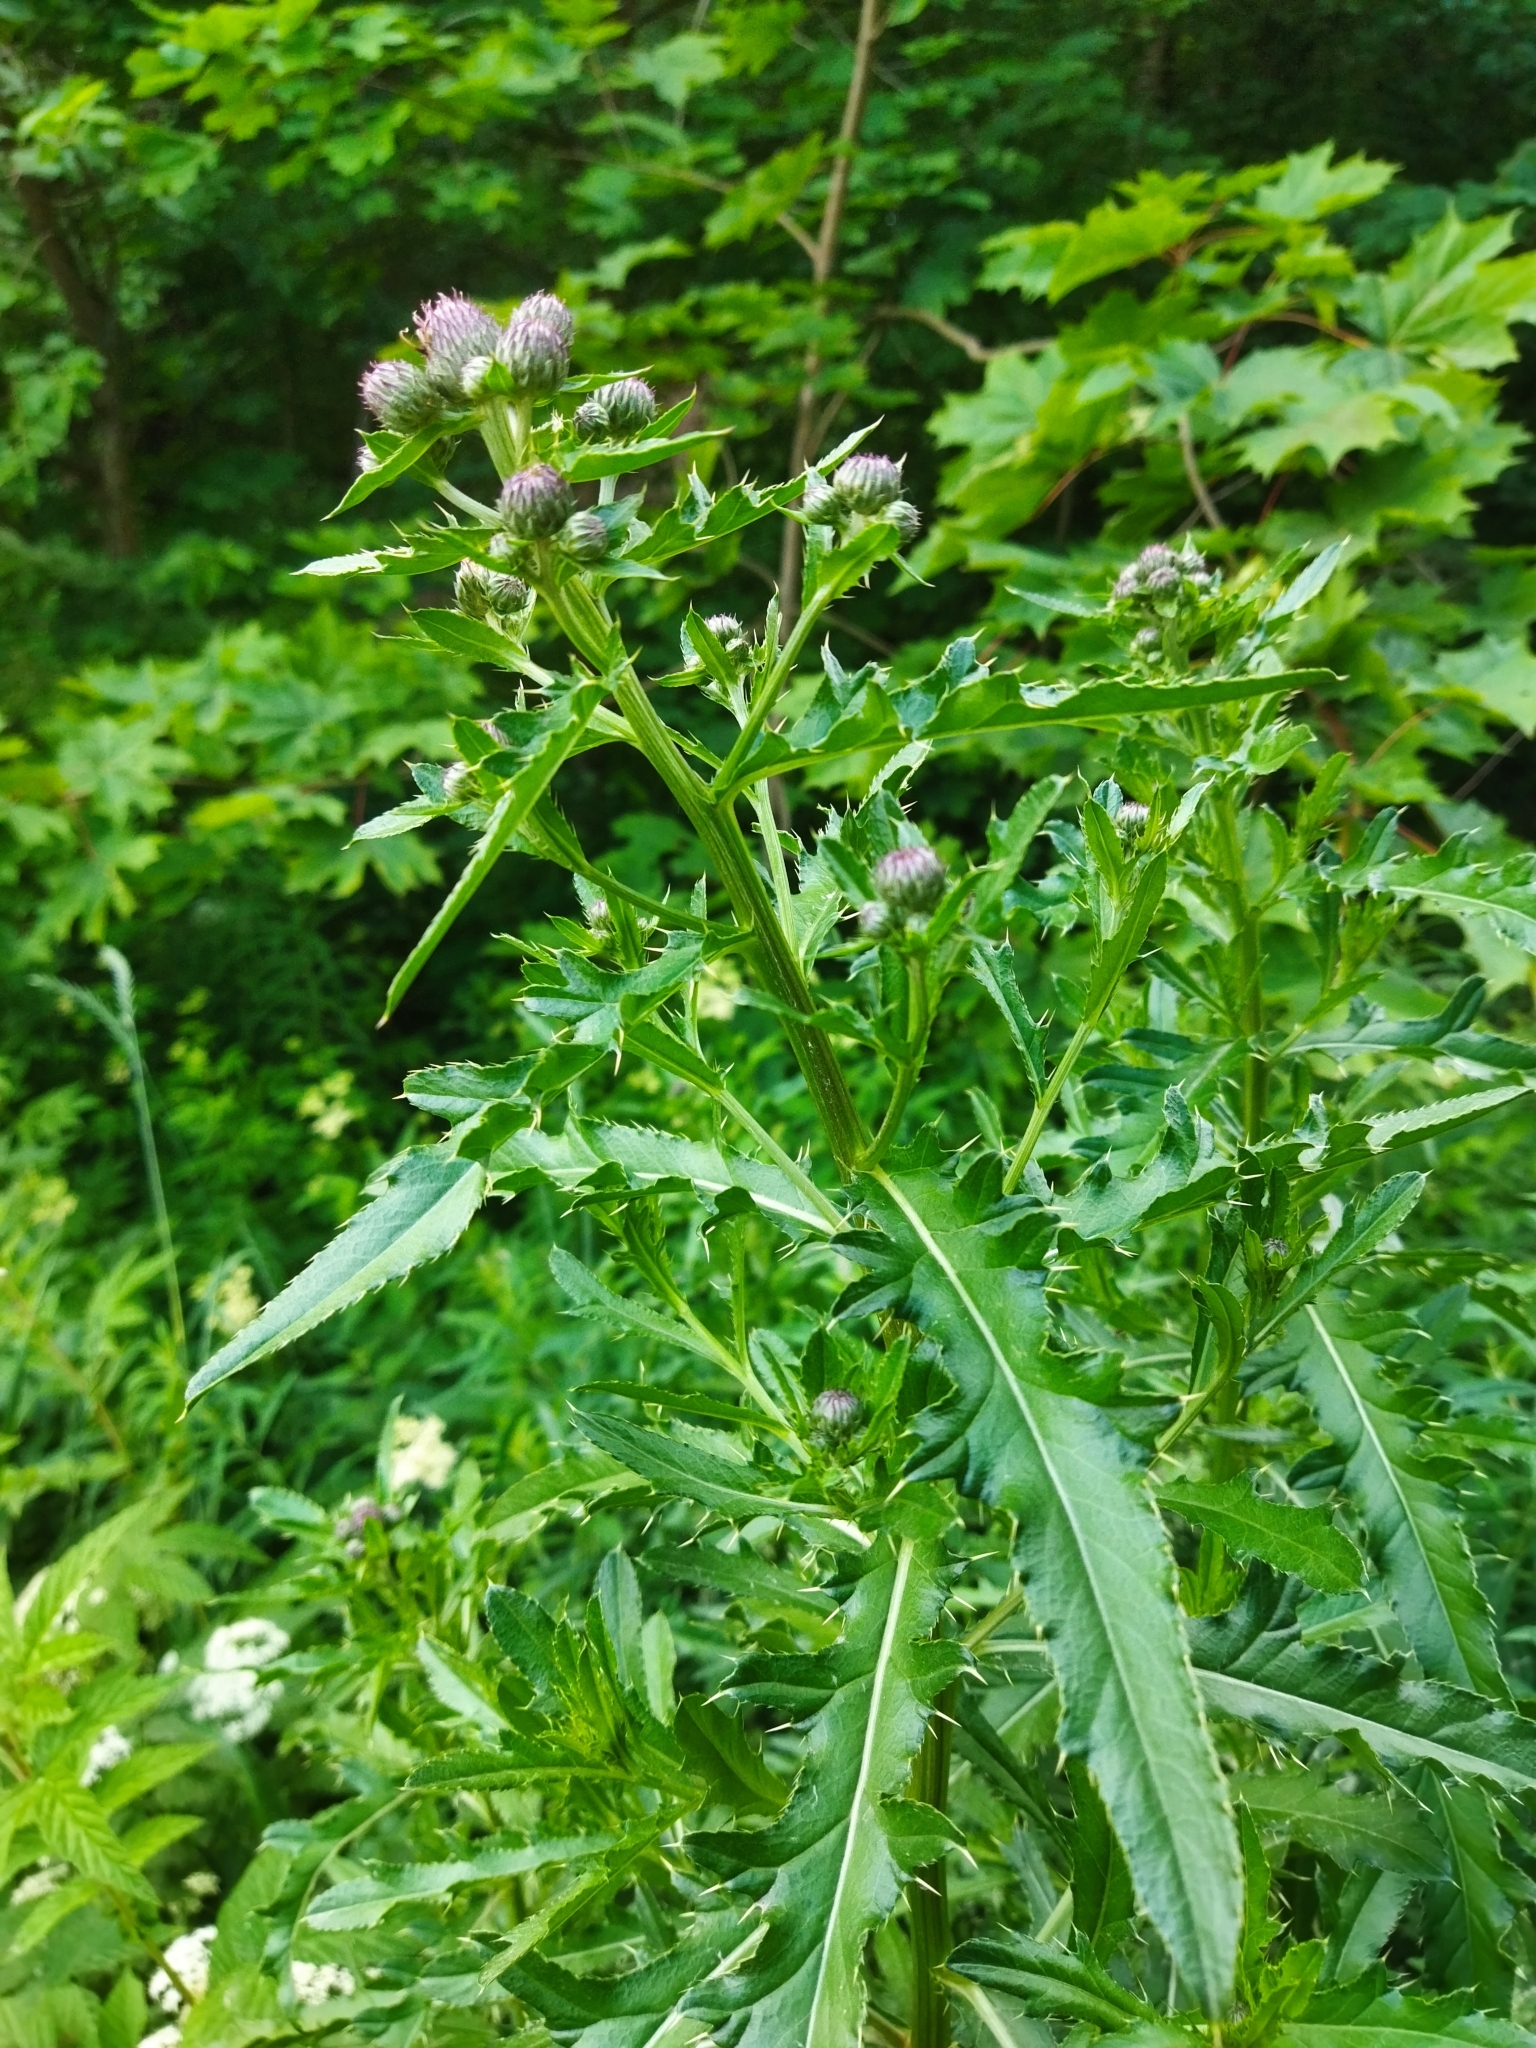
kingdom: Plantae
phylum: Tracheophyta
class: Magnoliopsida
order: Asterales
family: Asteraceae
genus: Cirsium
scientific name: Cirsium arvense
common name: Creeping thistle
